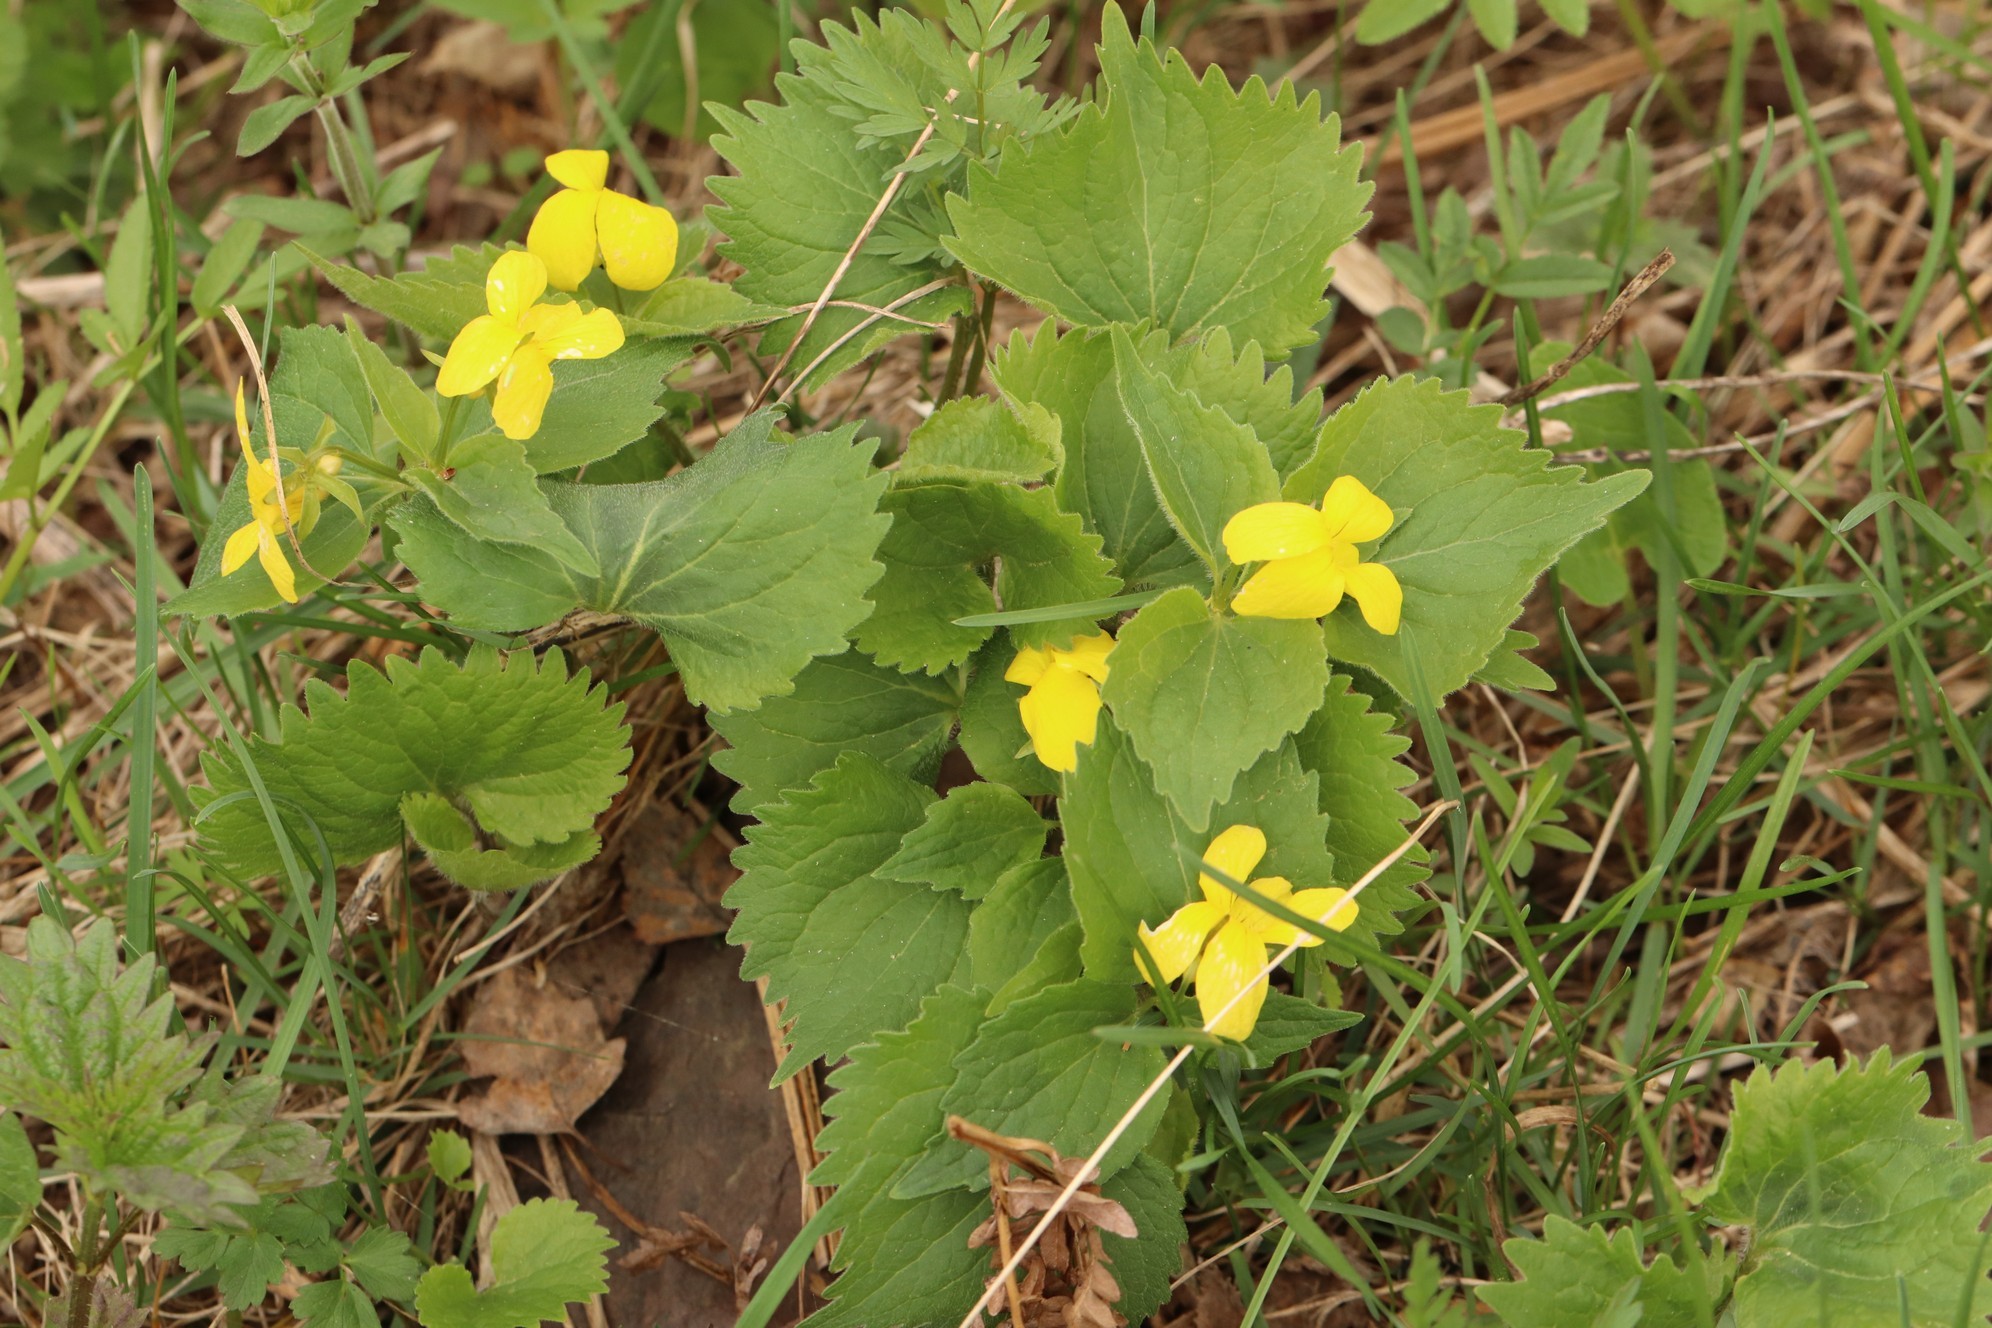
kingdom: Plantae
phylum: Tracheophyta
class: Magnoliopsida
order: Malpighiales
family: Violaceae
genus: Viola
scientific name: Viola uniflora
